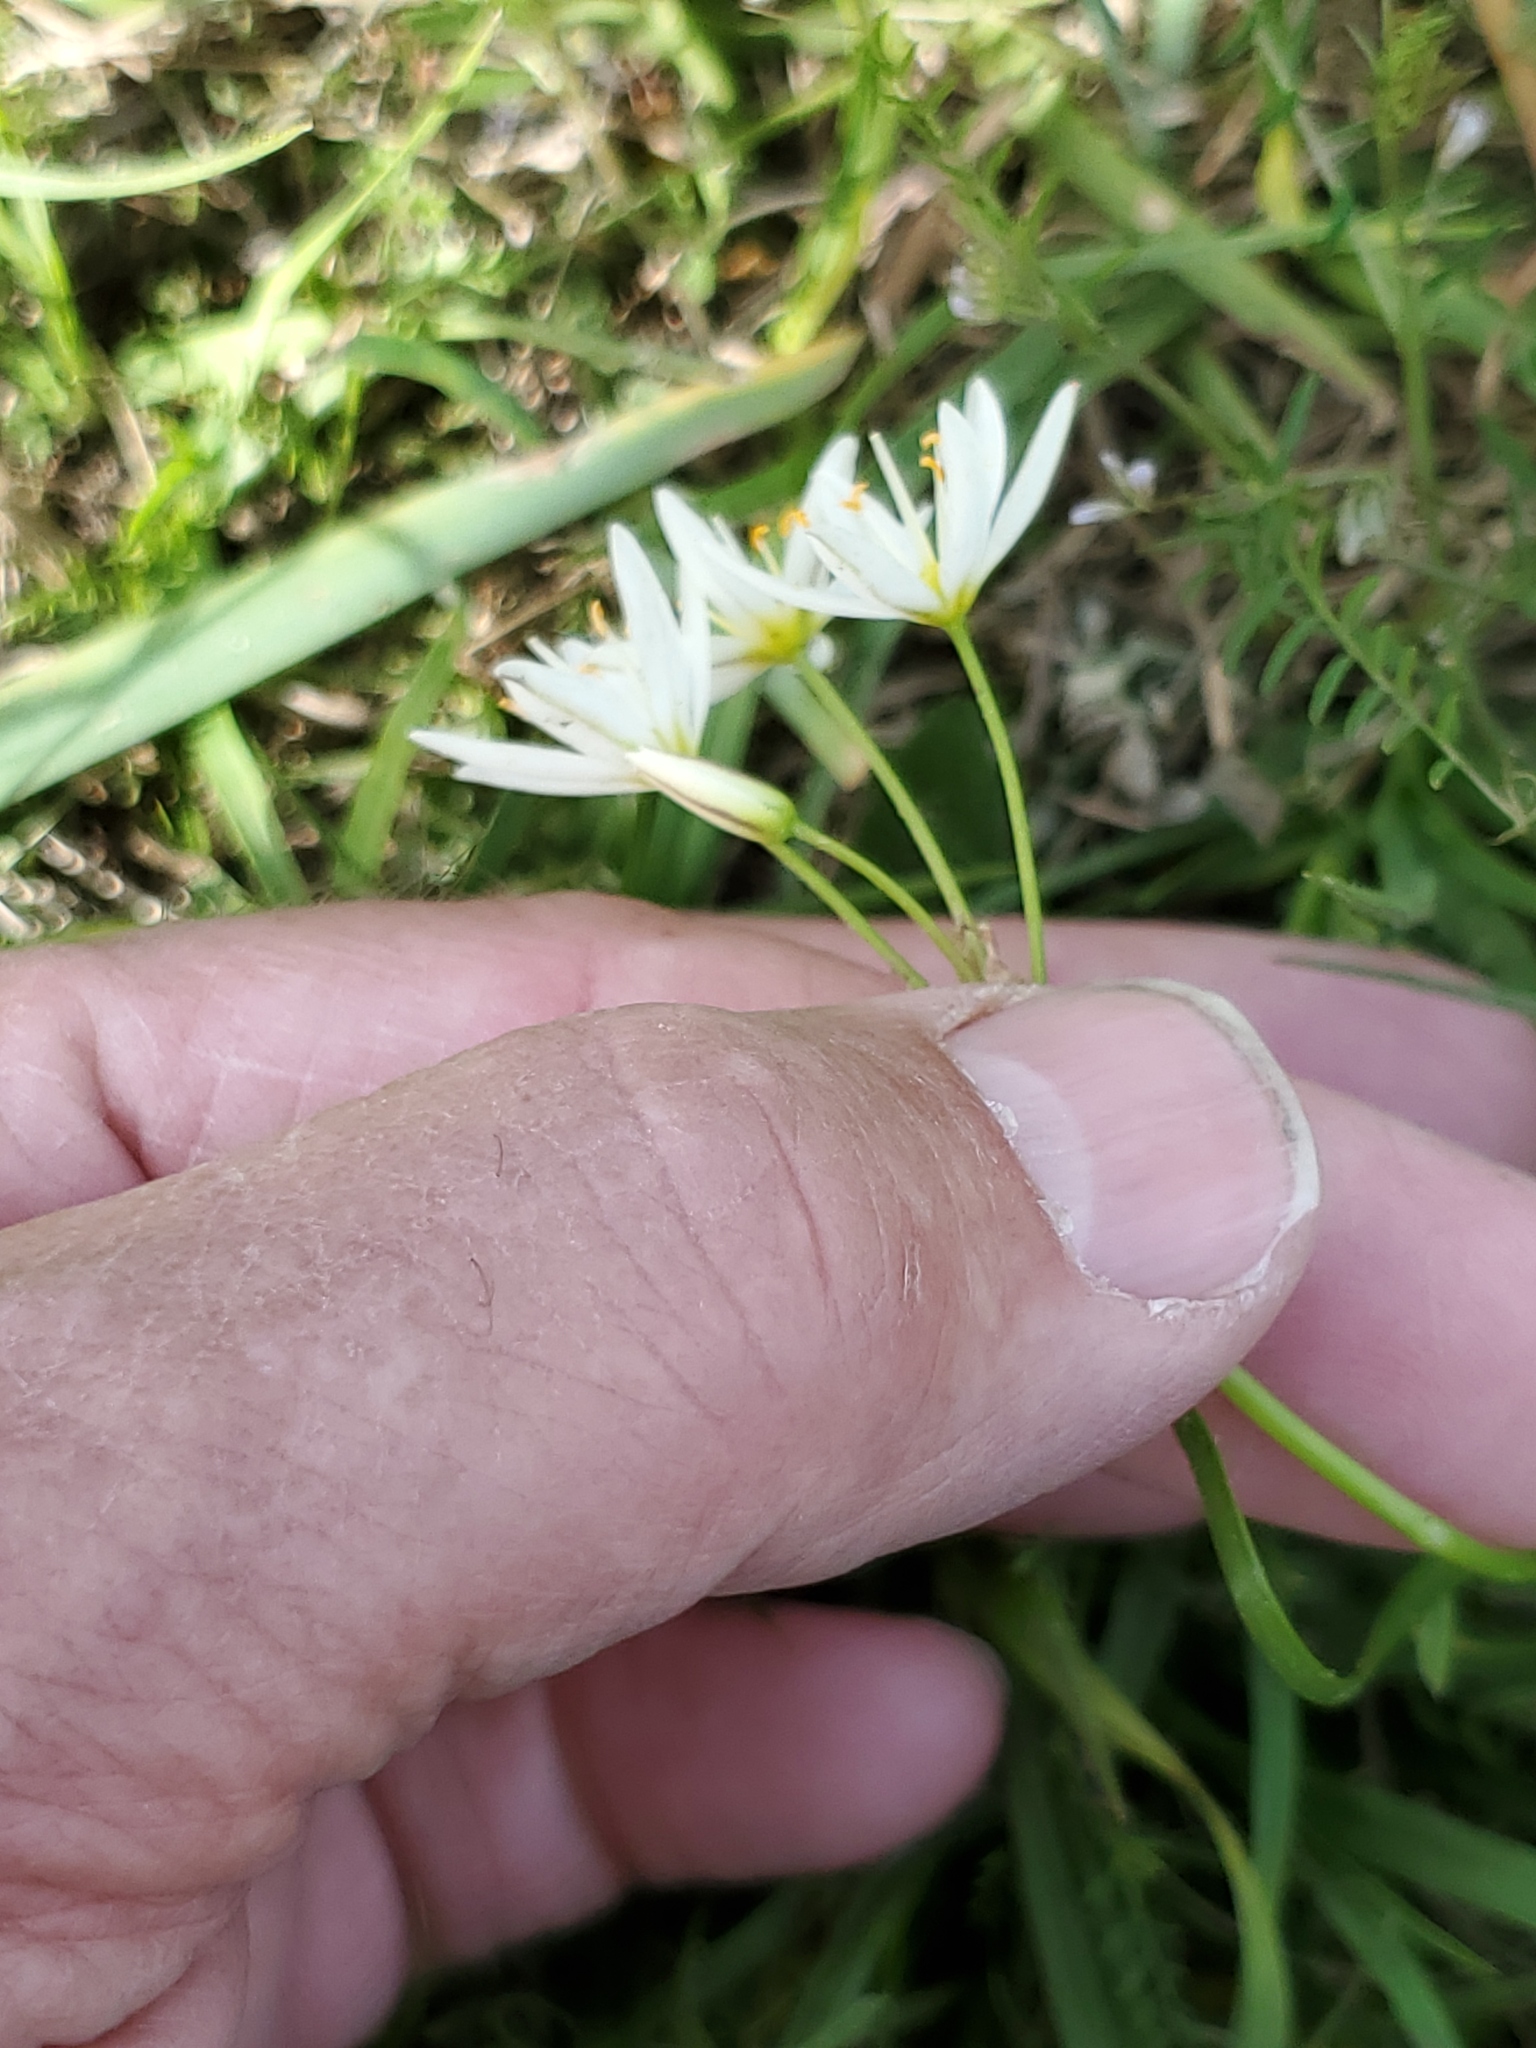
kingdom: Plantae
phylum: Tracheophyta
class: Liliopsida
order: Asparagales
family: Amaryllidaceae
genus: Nothoscordum
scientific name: Nothoscordum bivalve
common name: Crow-poison
